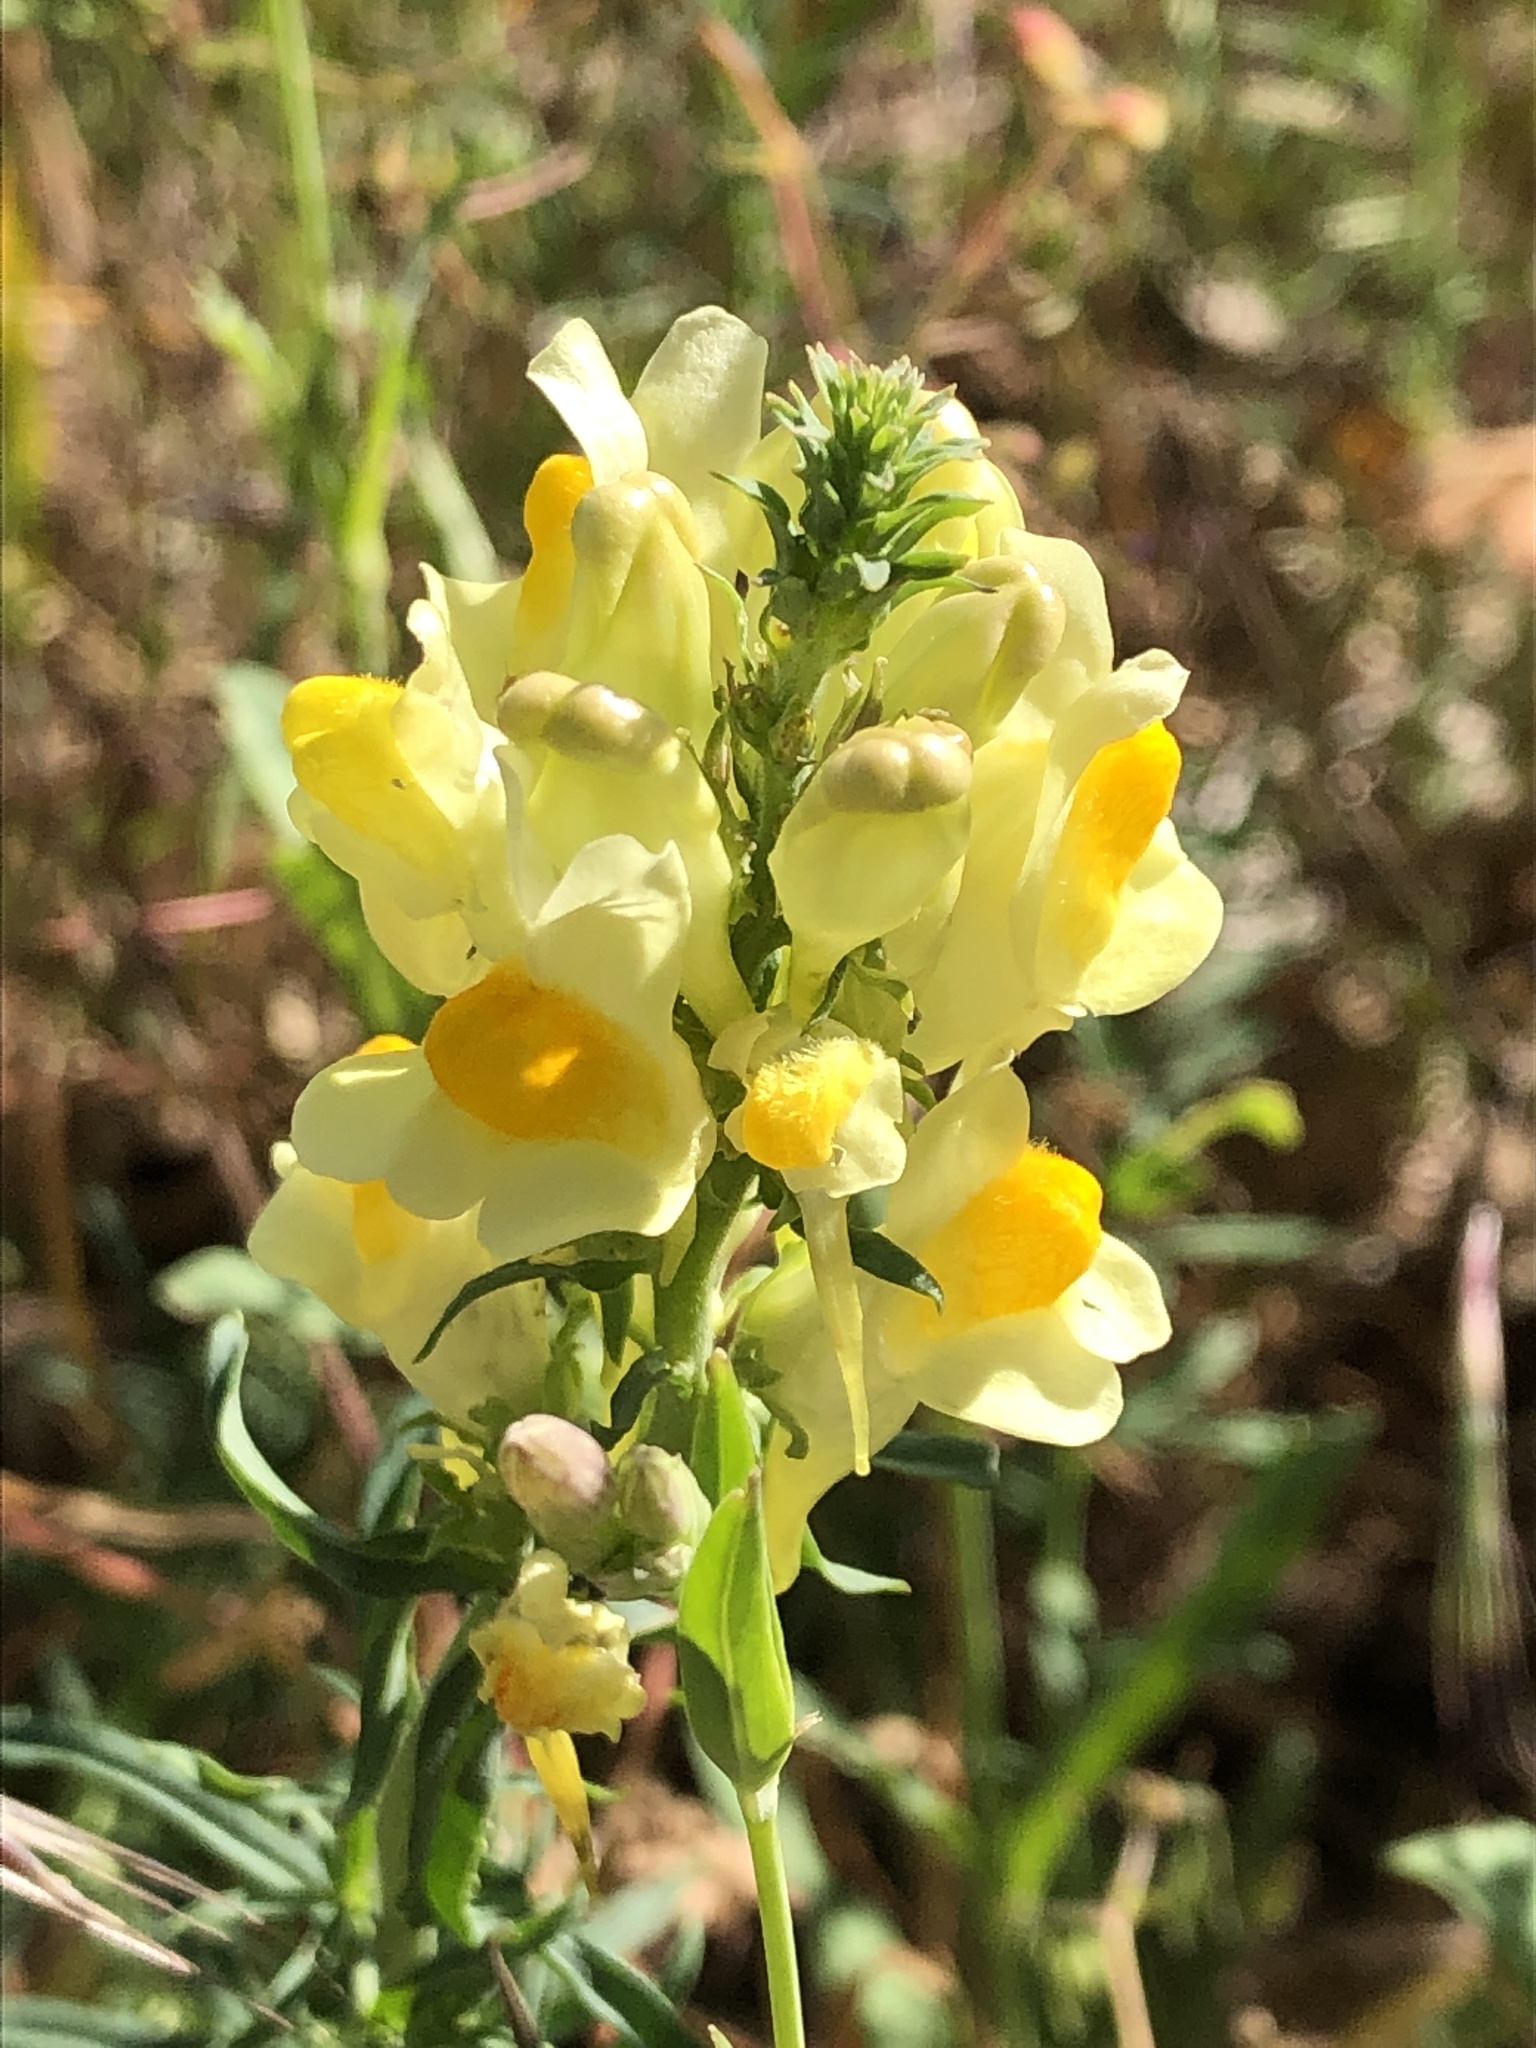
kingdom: Plantae
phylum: Tracheophyta
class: Magnoliopsida
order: Lamiales
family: Plantaginaceae
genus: Linaria
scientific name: Linaria vulgaris
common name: Butter and eggs
